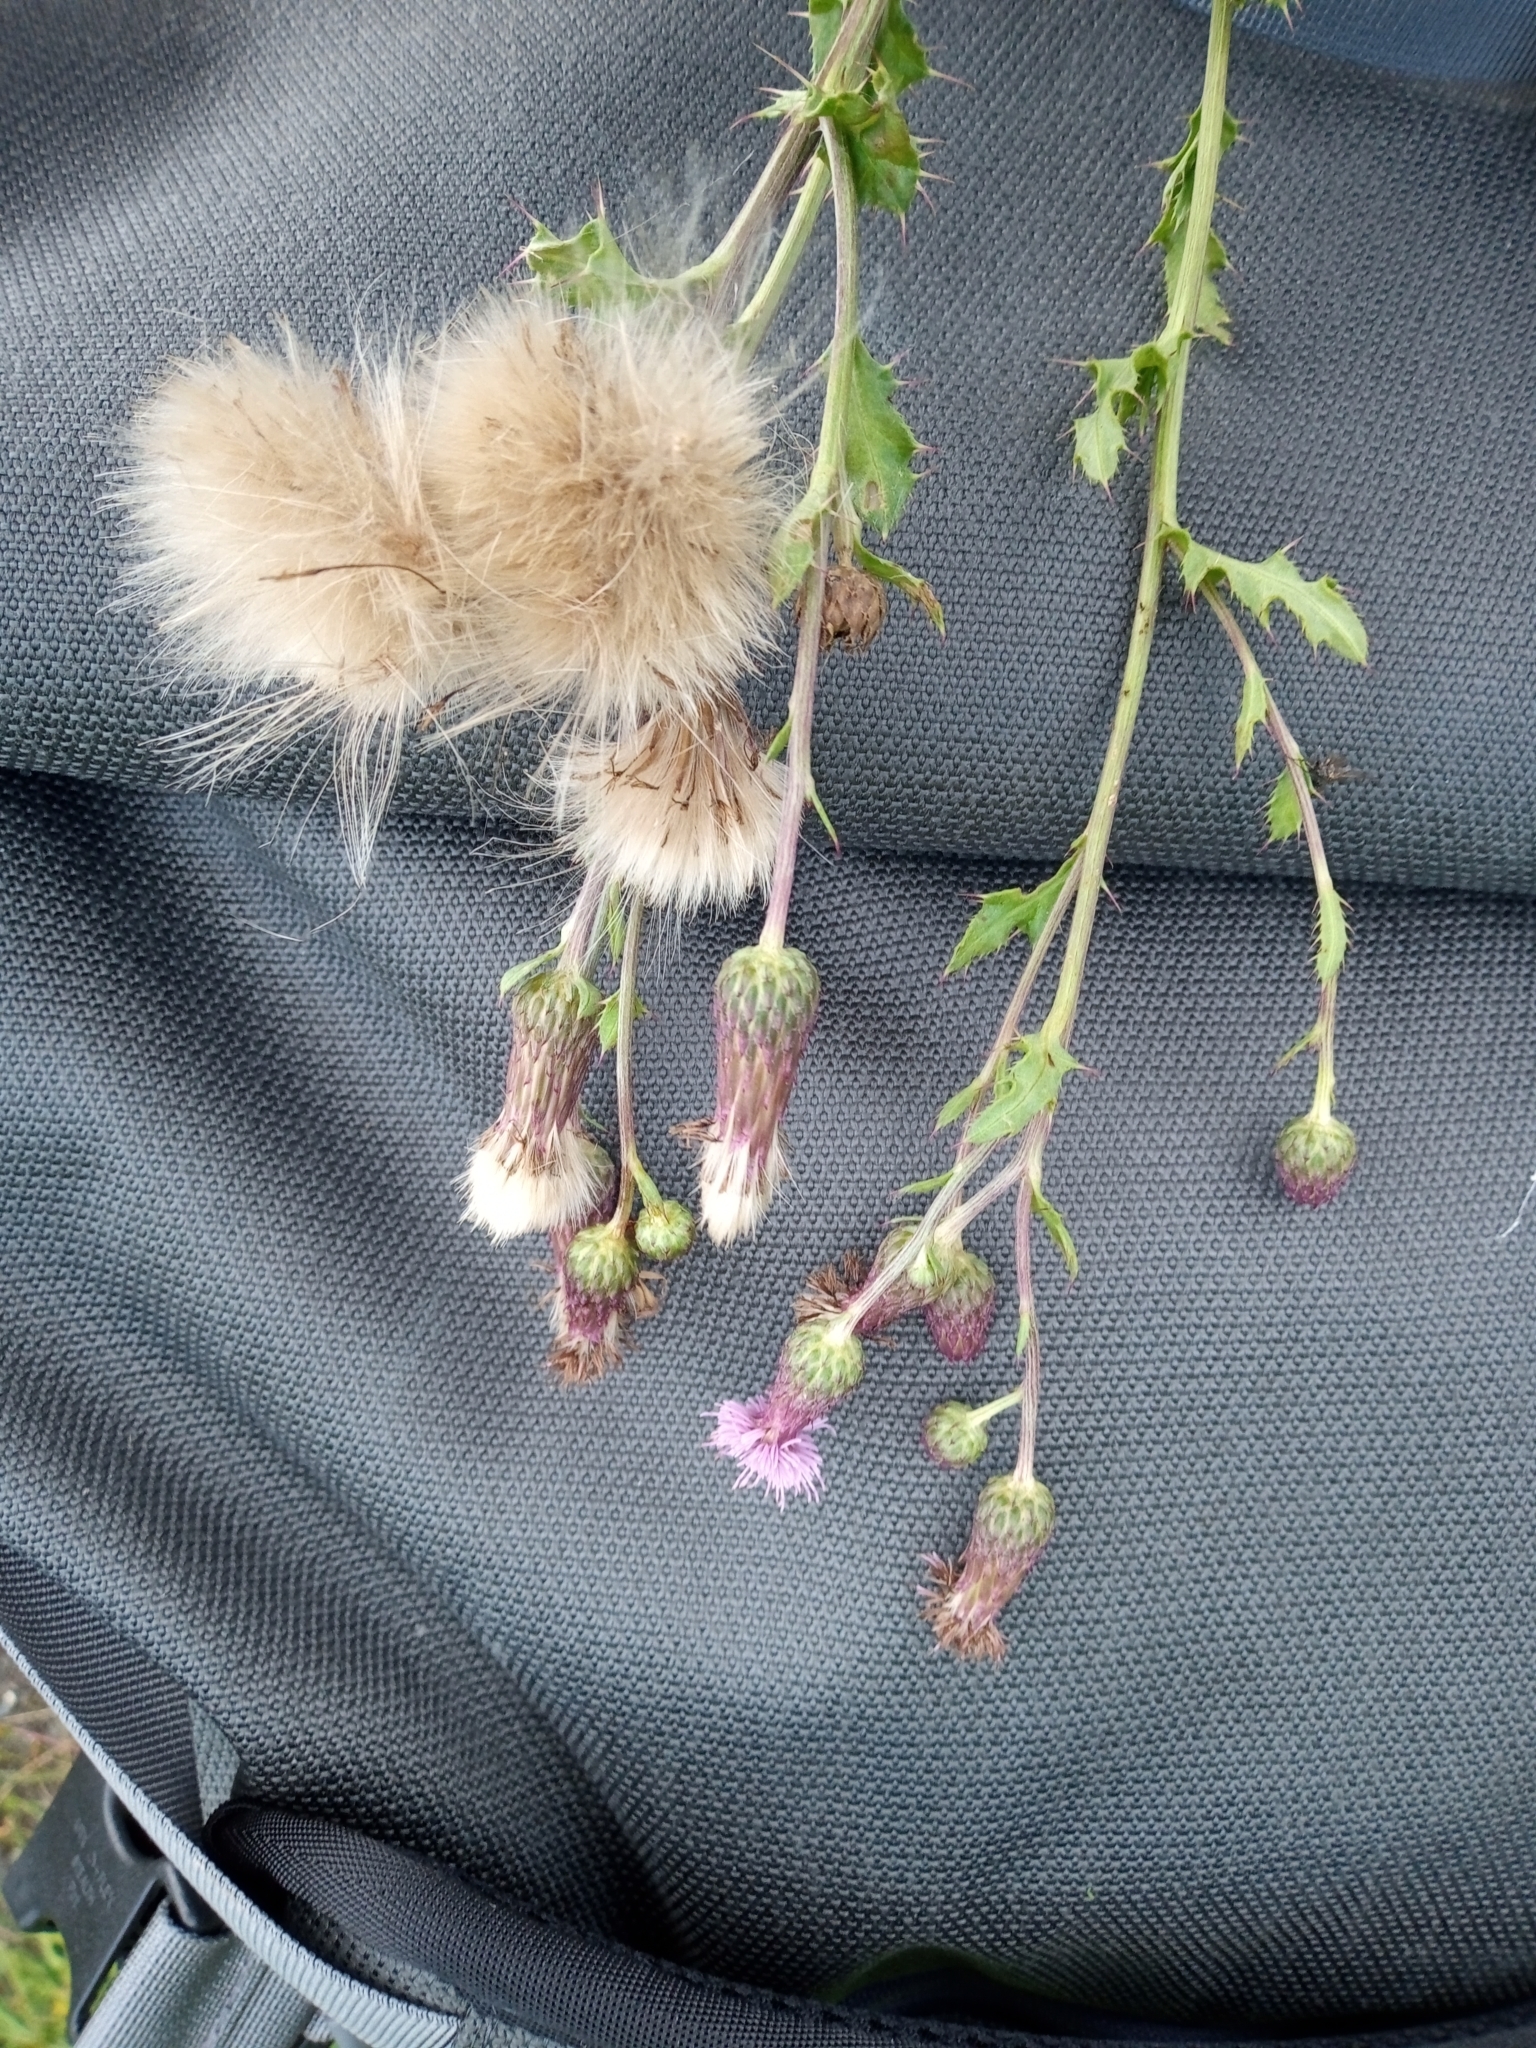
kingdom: Plantae
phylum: Tracheophyta
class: Magnoliopsida
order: Asterales
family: Asteraceae
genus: Cirsium
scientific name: Cirsium arvense
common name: Creeping thistle
